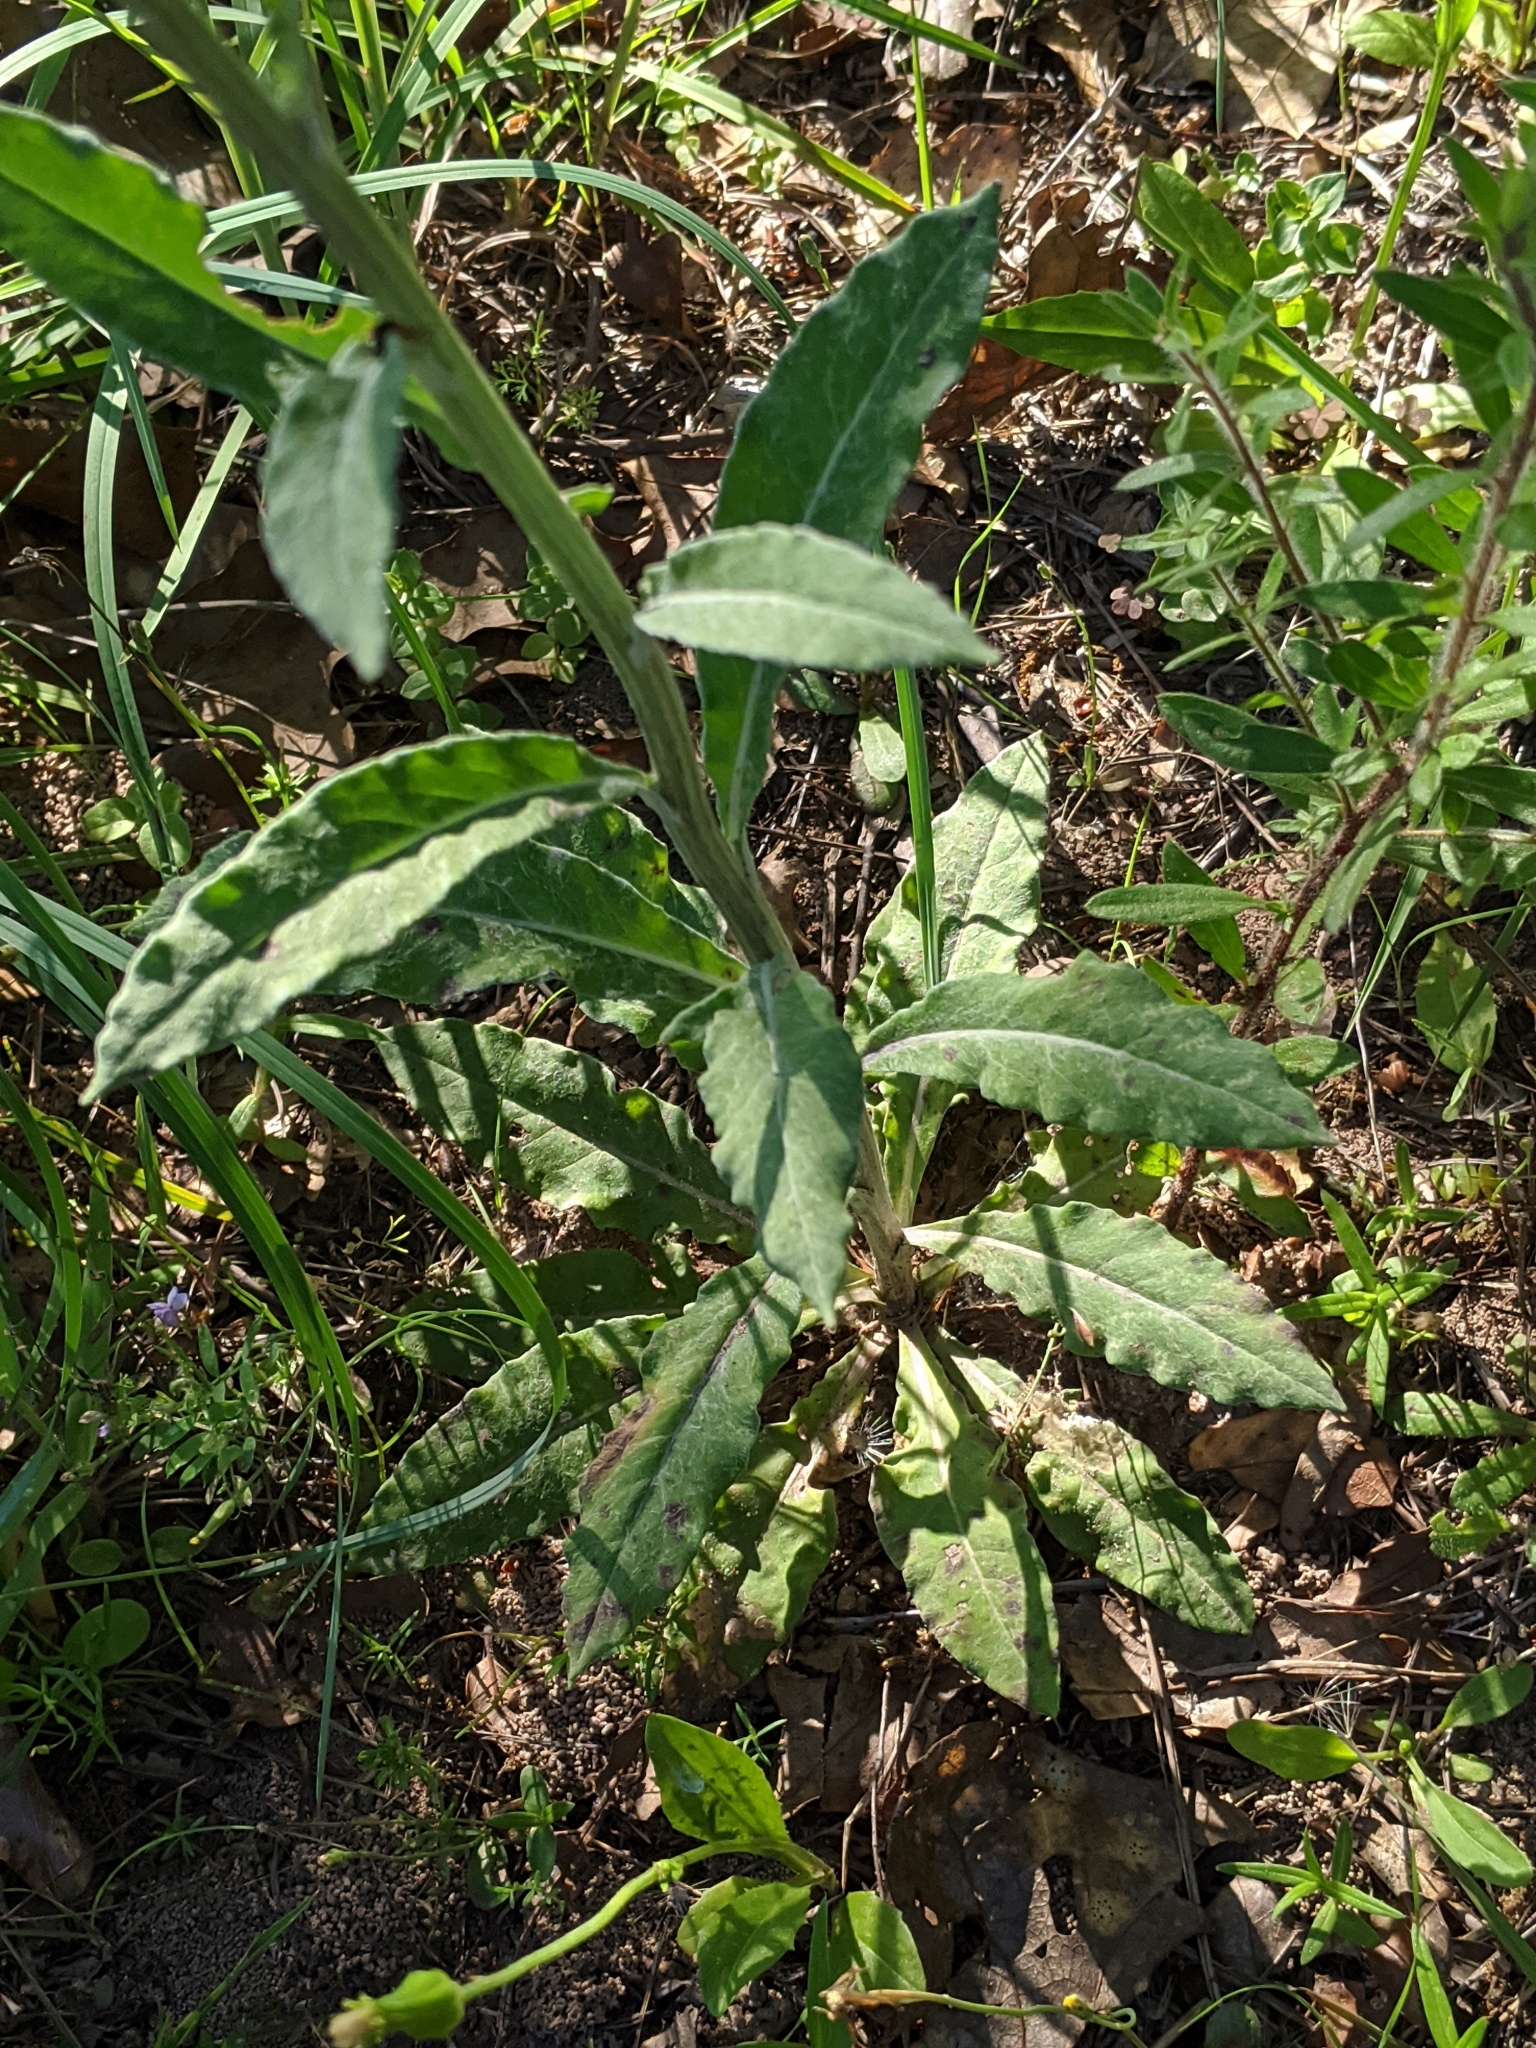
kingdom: Plantae
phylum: Tracheophyta
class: Magnoliopsida
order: Asterales
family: Asteraceae
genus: Hymenopappus
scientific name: Hymenopappus artemisiifolius
